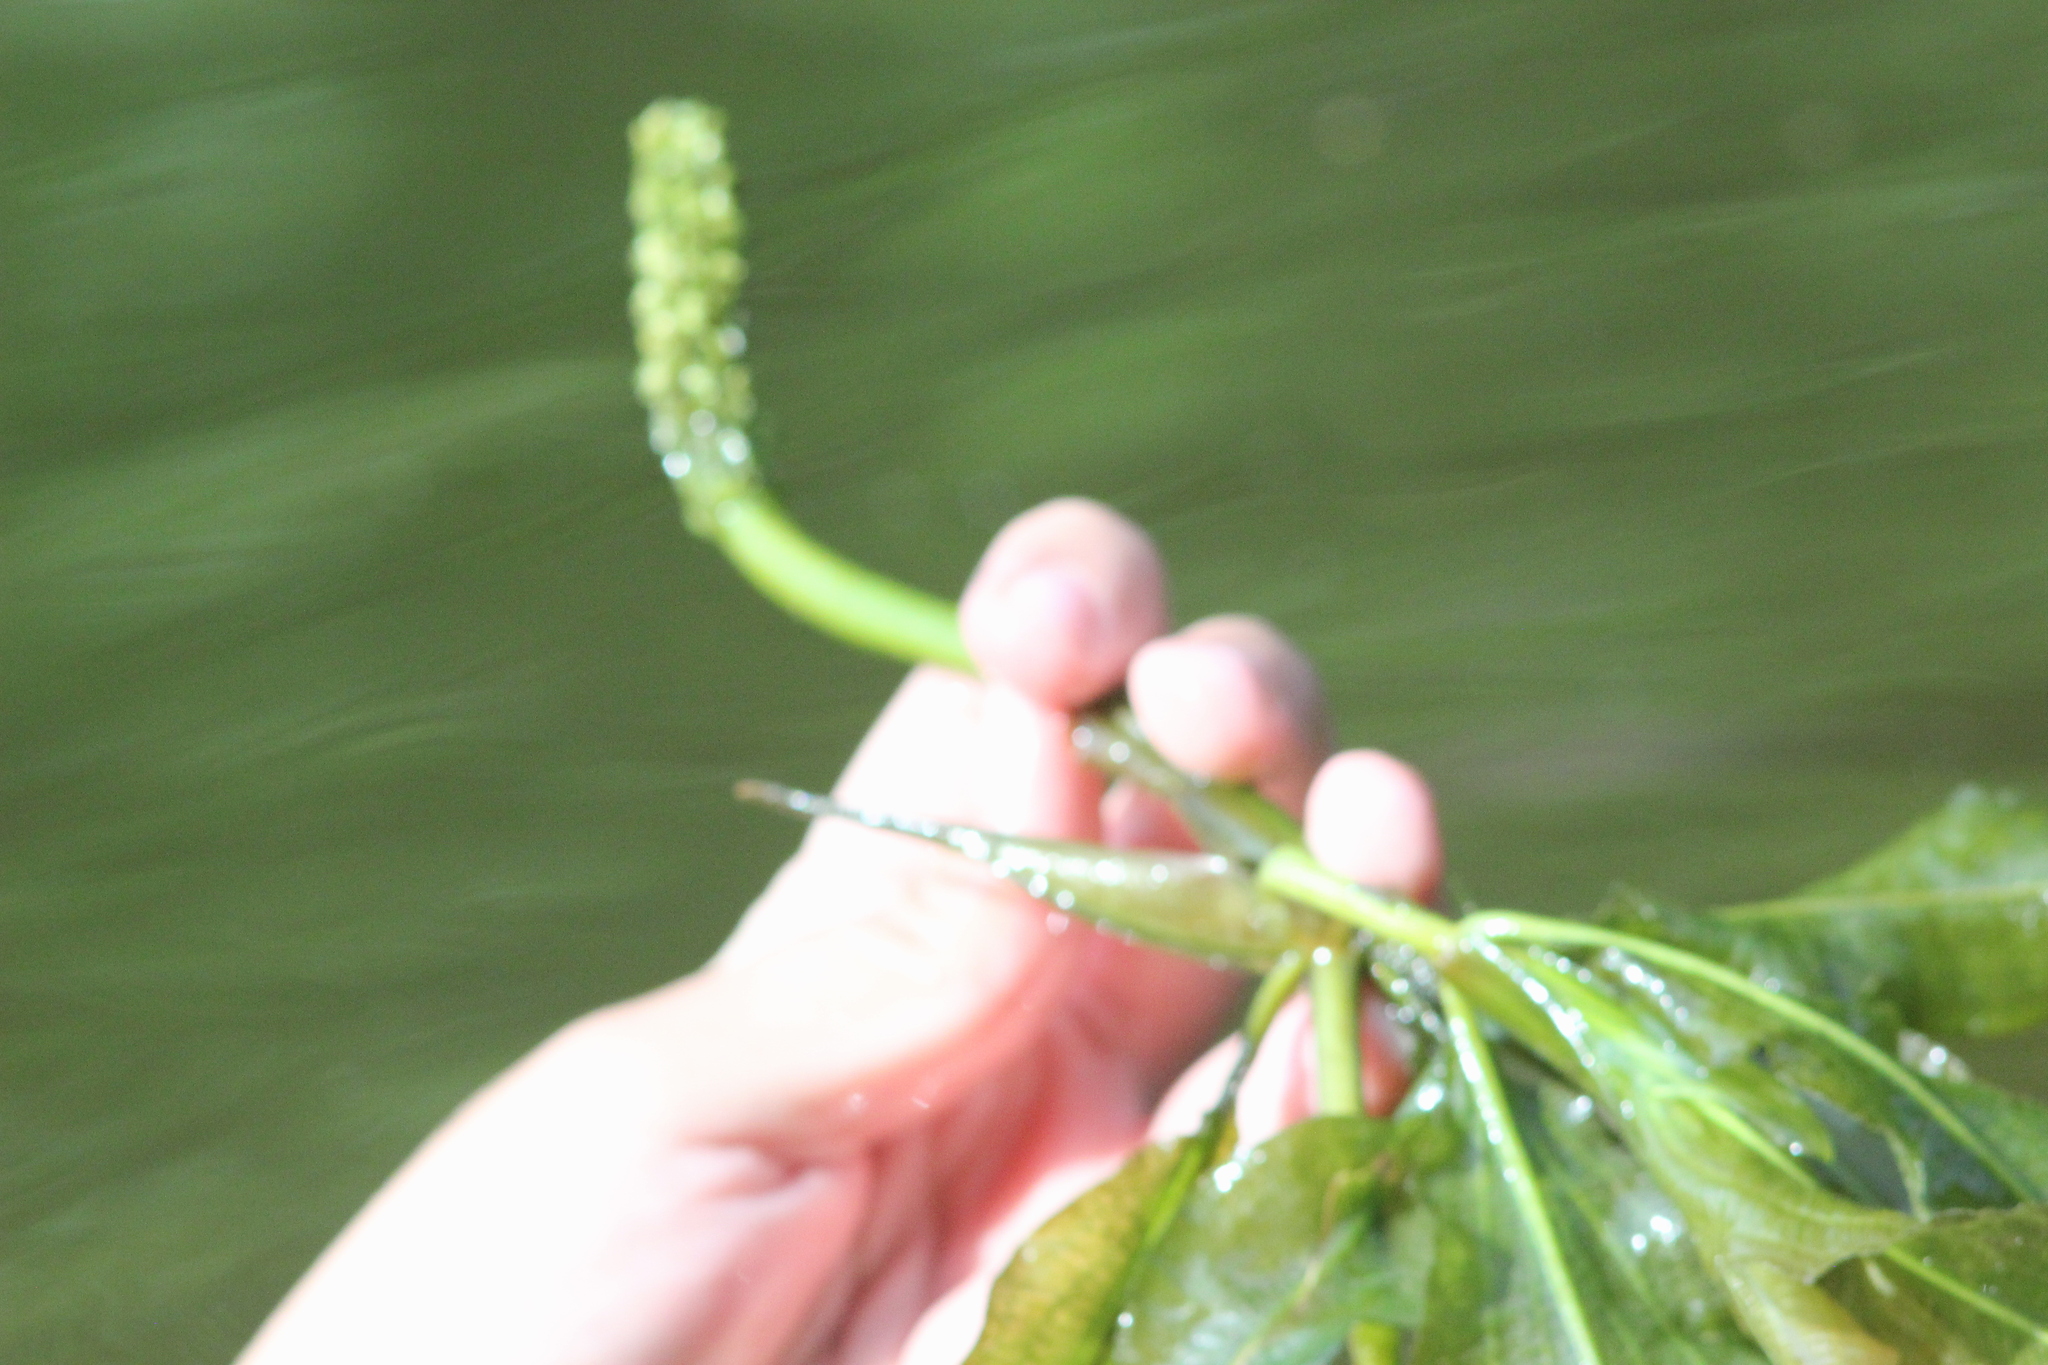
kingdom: Plantae
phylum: Tracheophyta
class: Liliopsida
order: Alismatales
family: Potamogetonaceae
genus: Potamogeton
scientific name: Potamogeton lucens
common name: Shining pondweed
